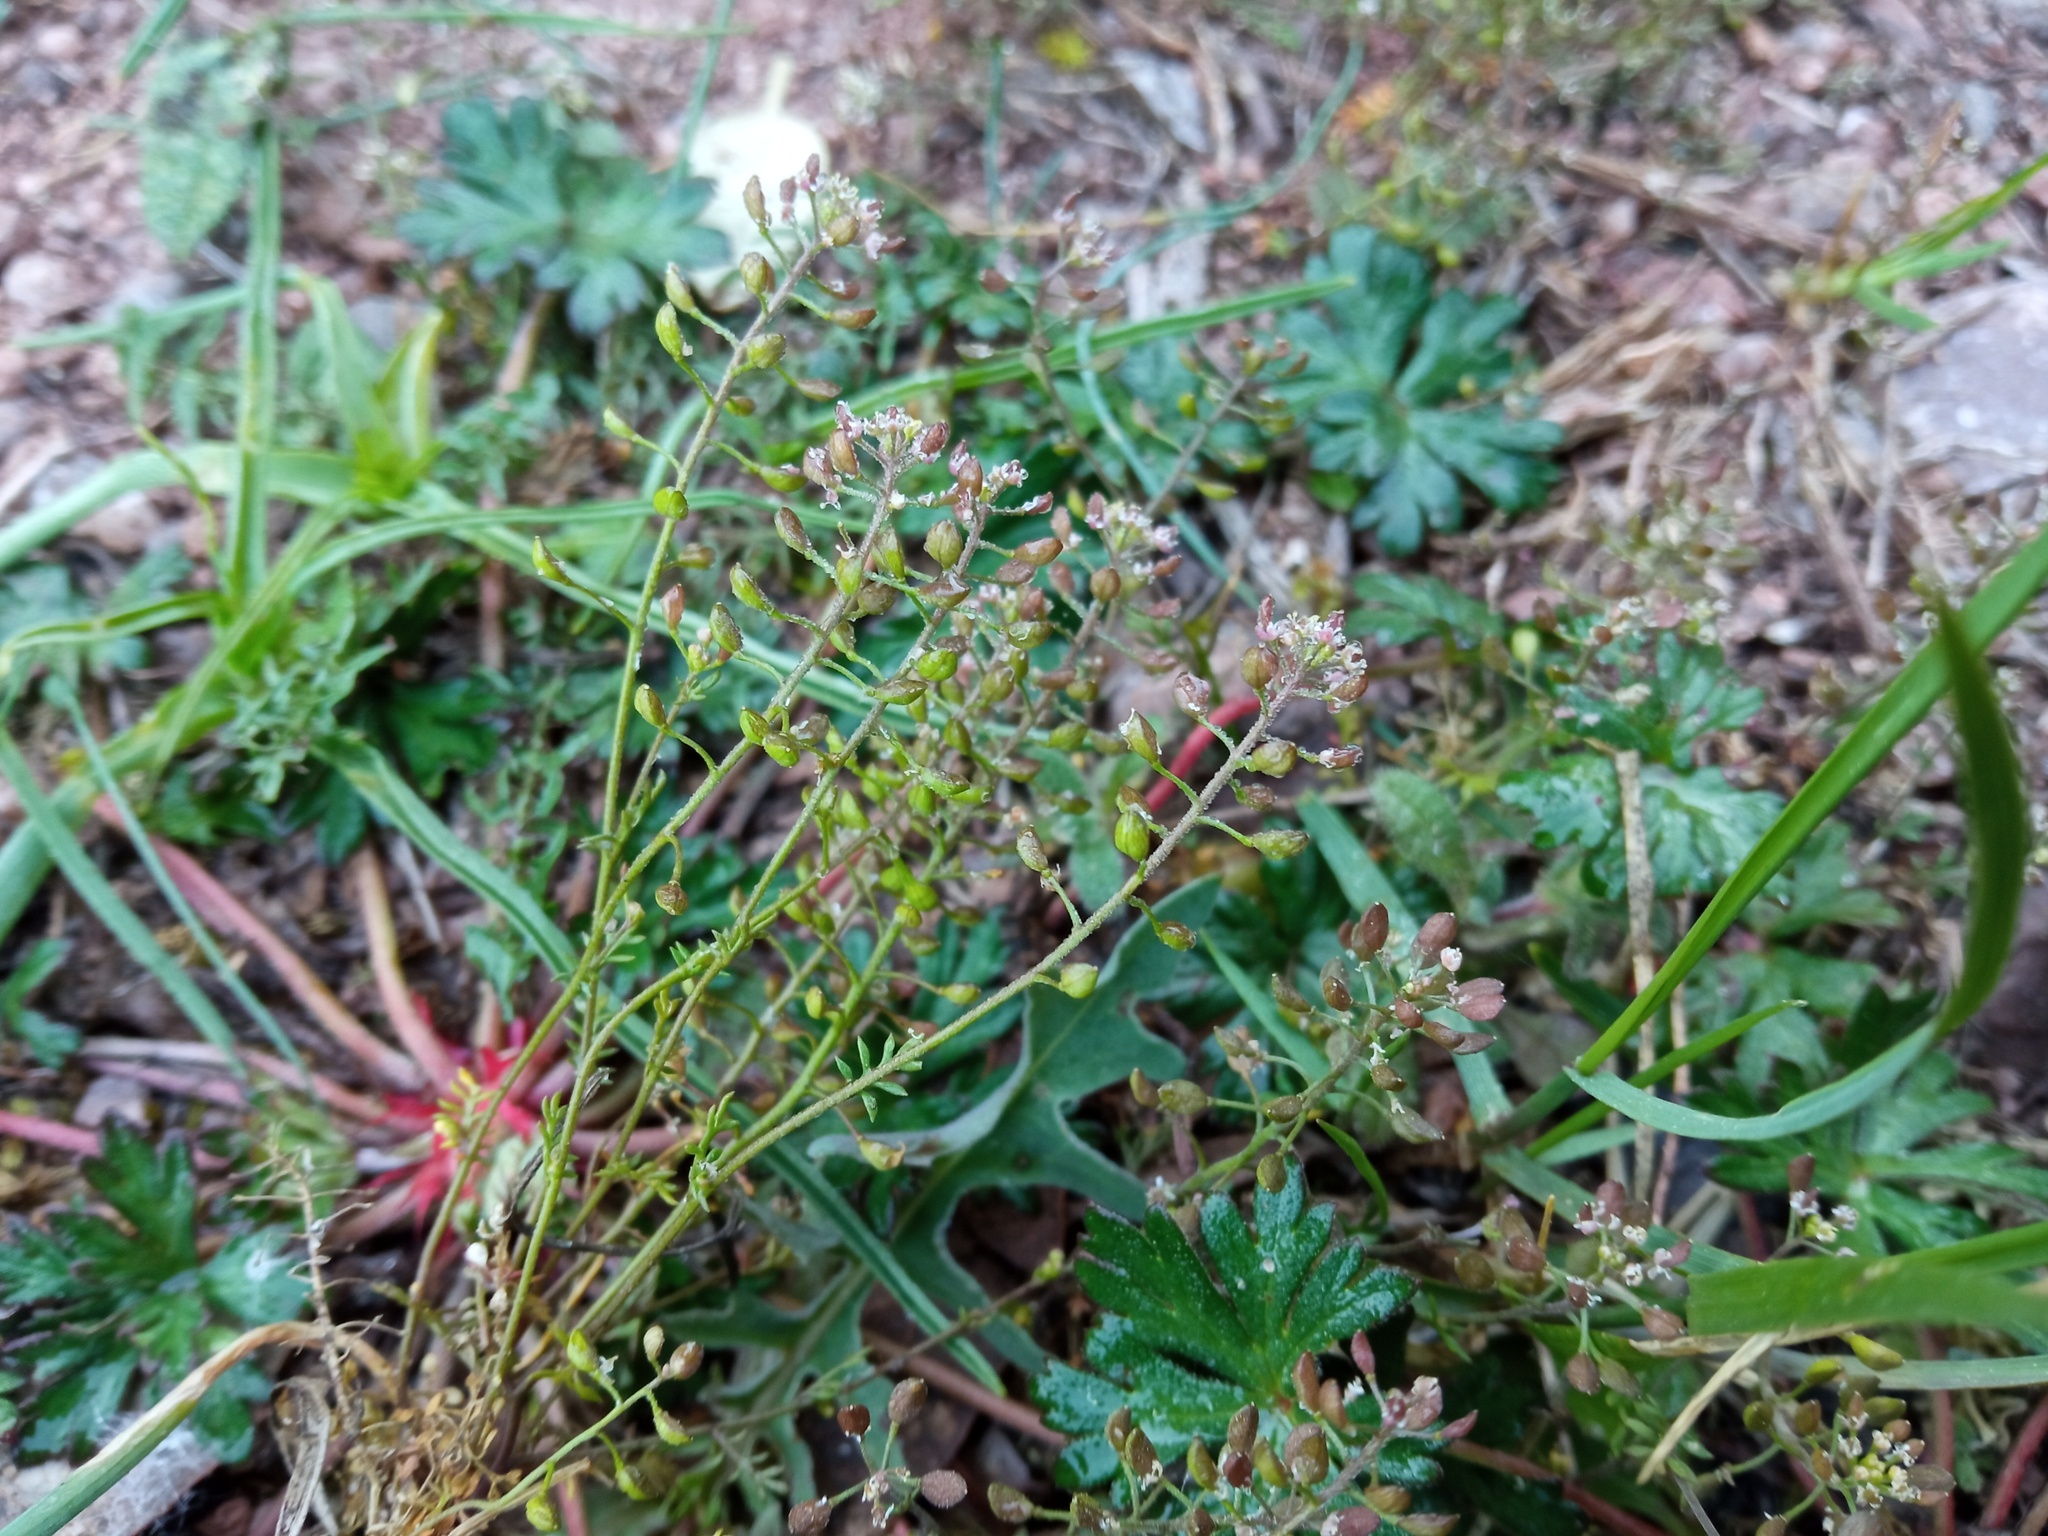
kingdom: Plantae
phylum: Tracheophyta
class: Magnoliopsida
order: Brassicales
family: Brassicaceae
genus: Hornungia
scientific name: Hornungia petraea
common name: Hutchinsia
